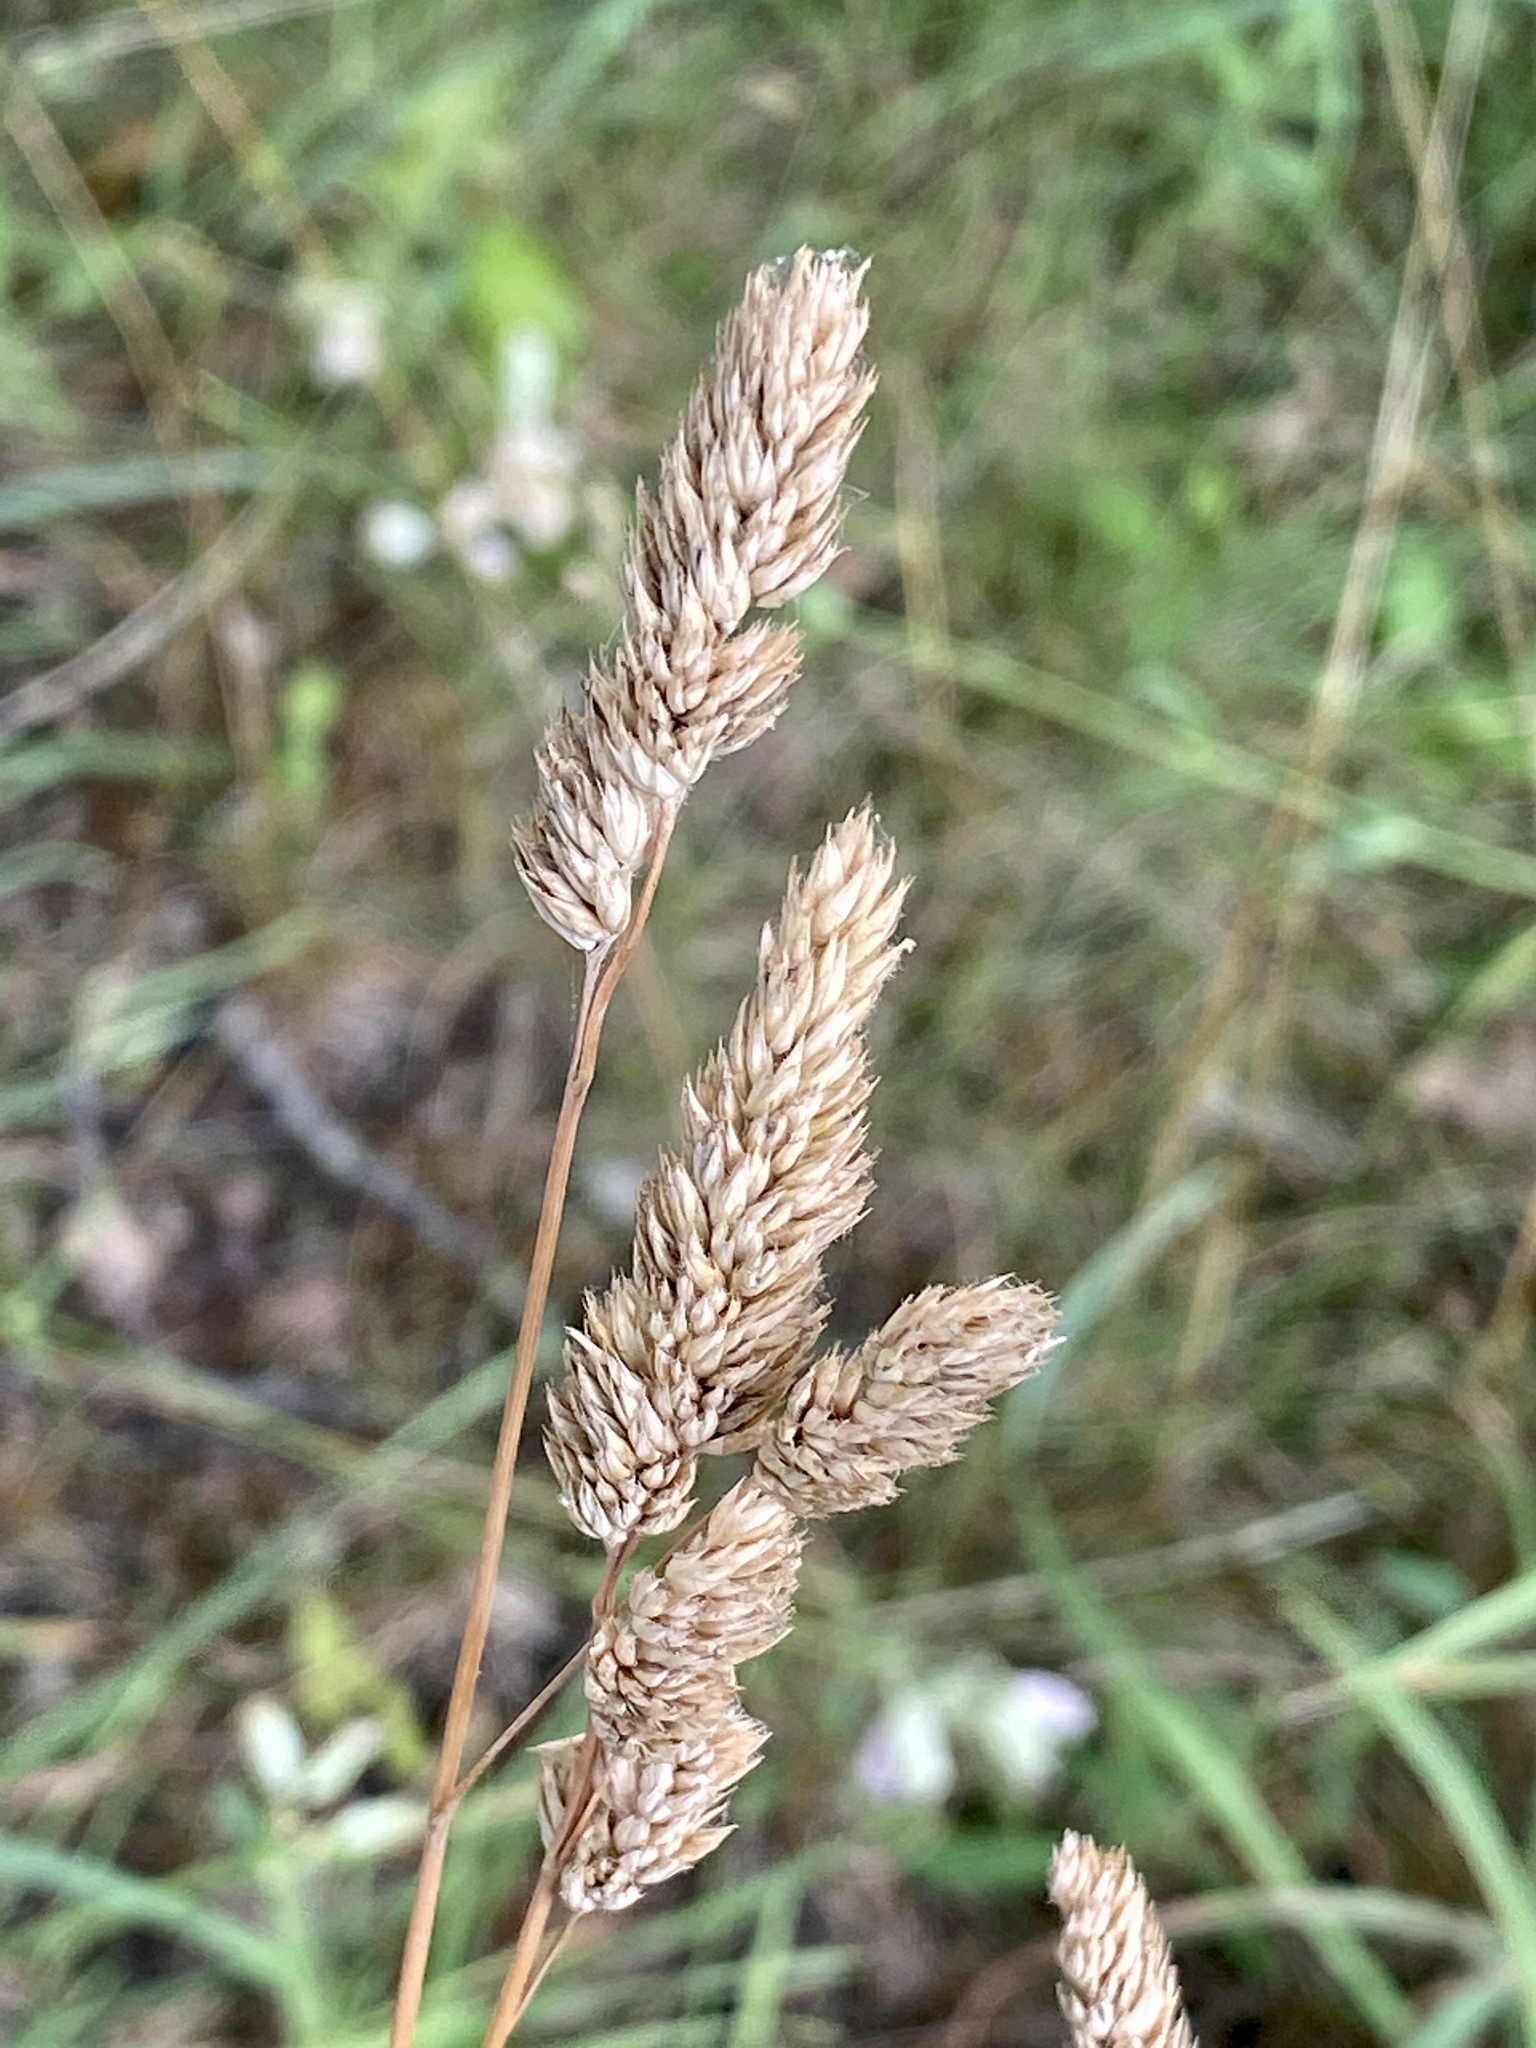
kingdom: Plantae
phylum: Tracheophyta
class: Liliopsida
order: Poales
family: Poaceae
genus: Dactylis
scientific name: Dactylis glomerata
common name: Orchardgrass
